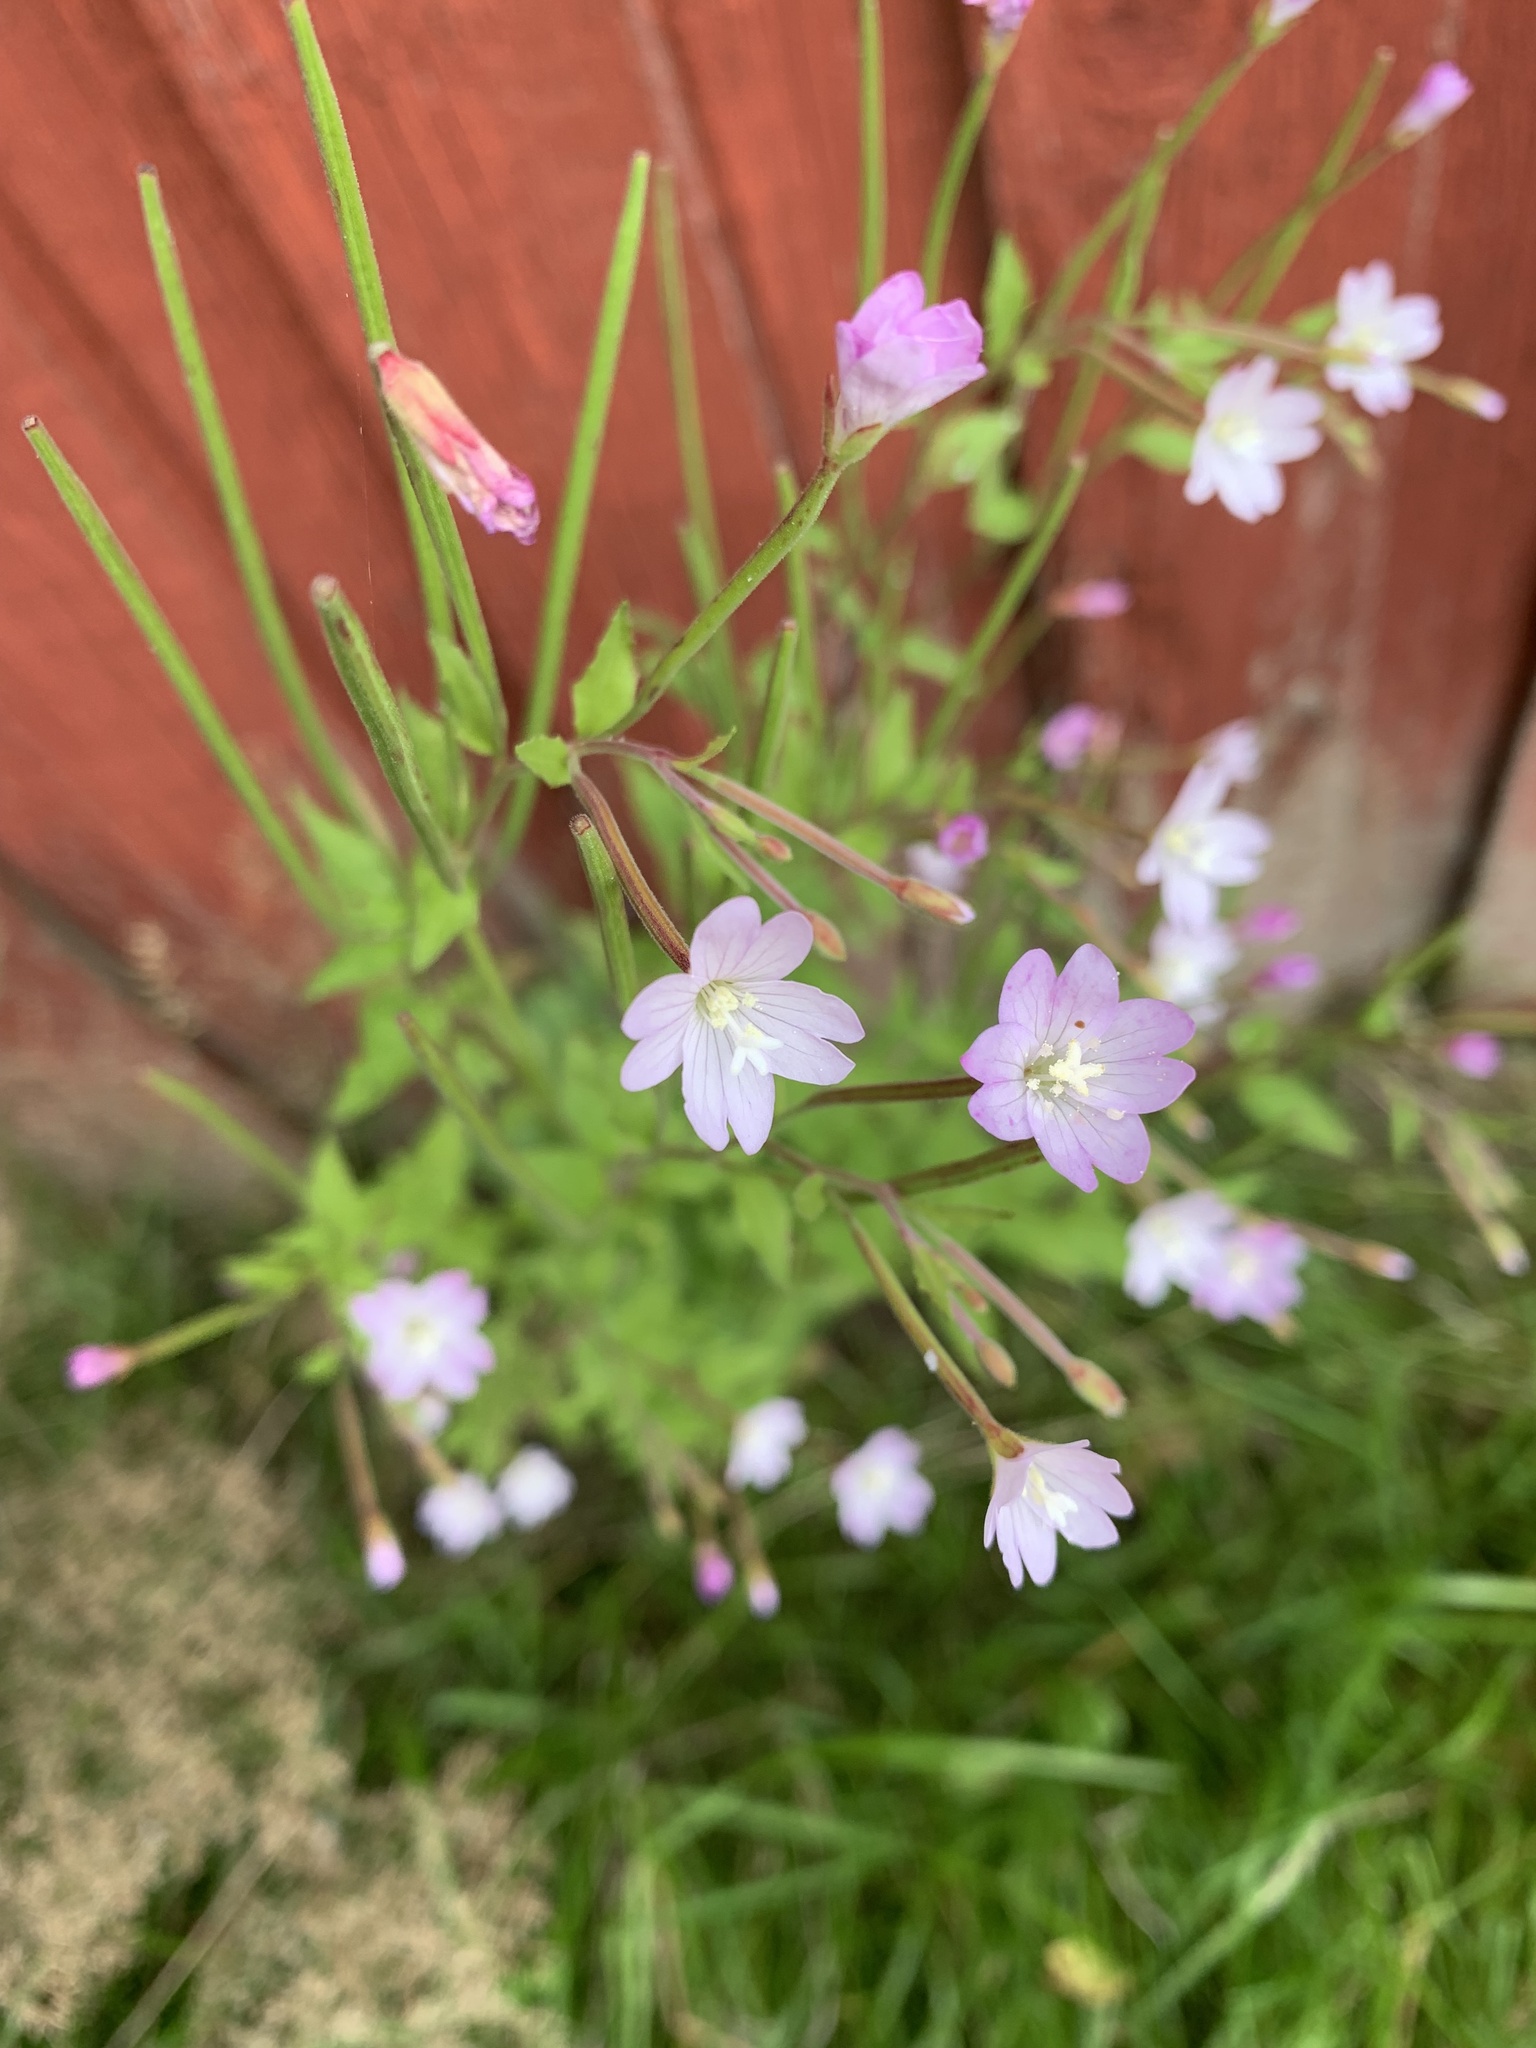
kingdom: Plantae
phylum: Tracheophyta
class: Magnoliopsida
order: Myrtales
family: Onagraceae
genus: Epilobium
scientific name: Epilobium montanum
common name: Broad-leaved willowherb
